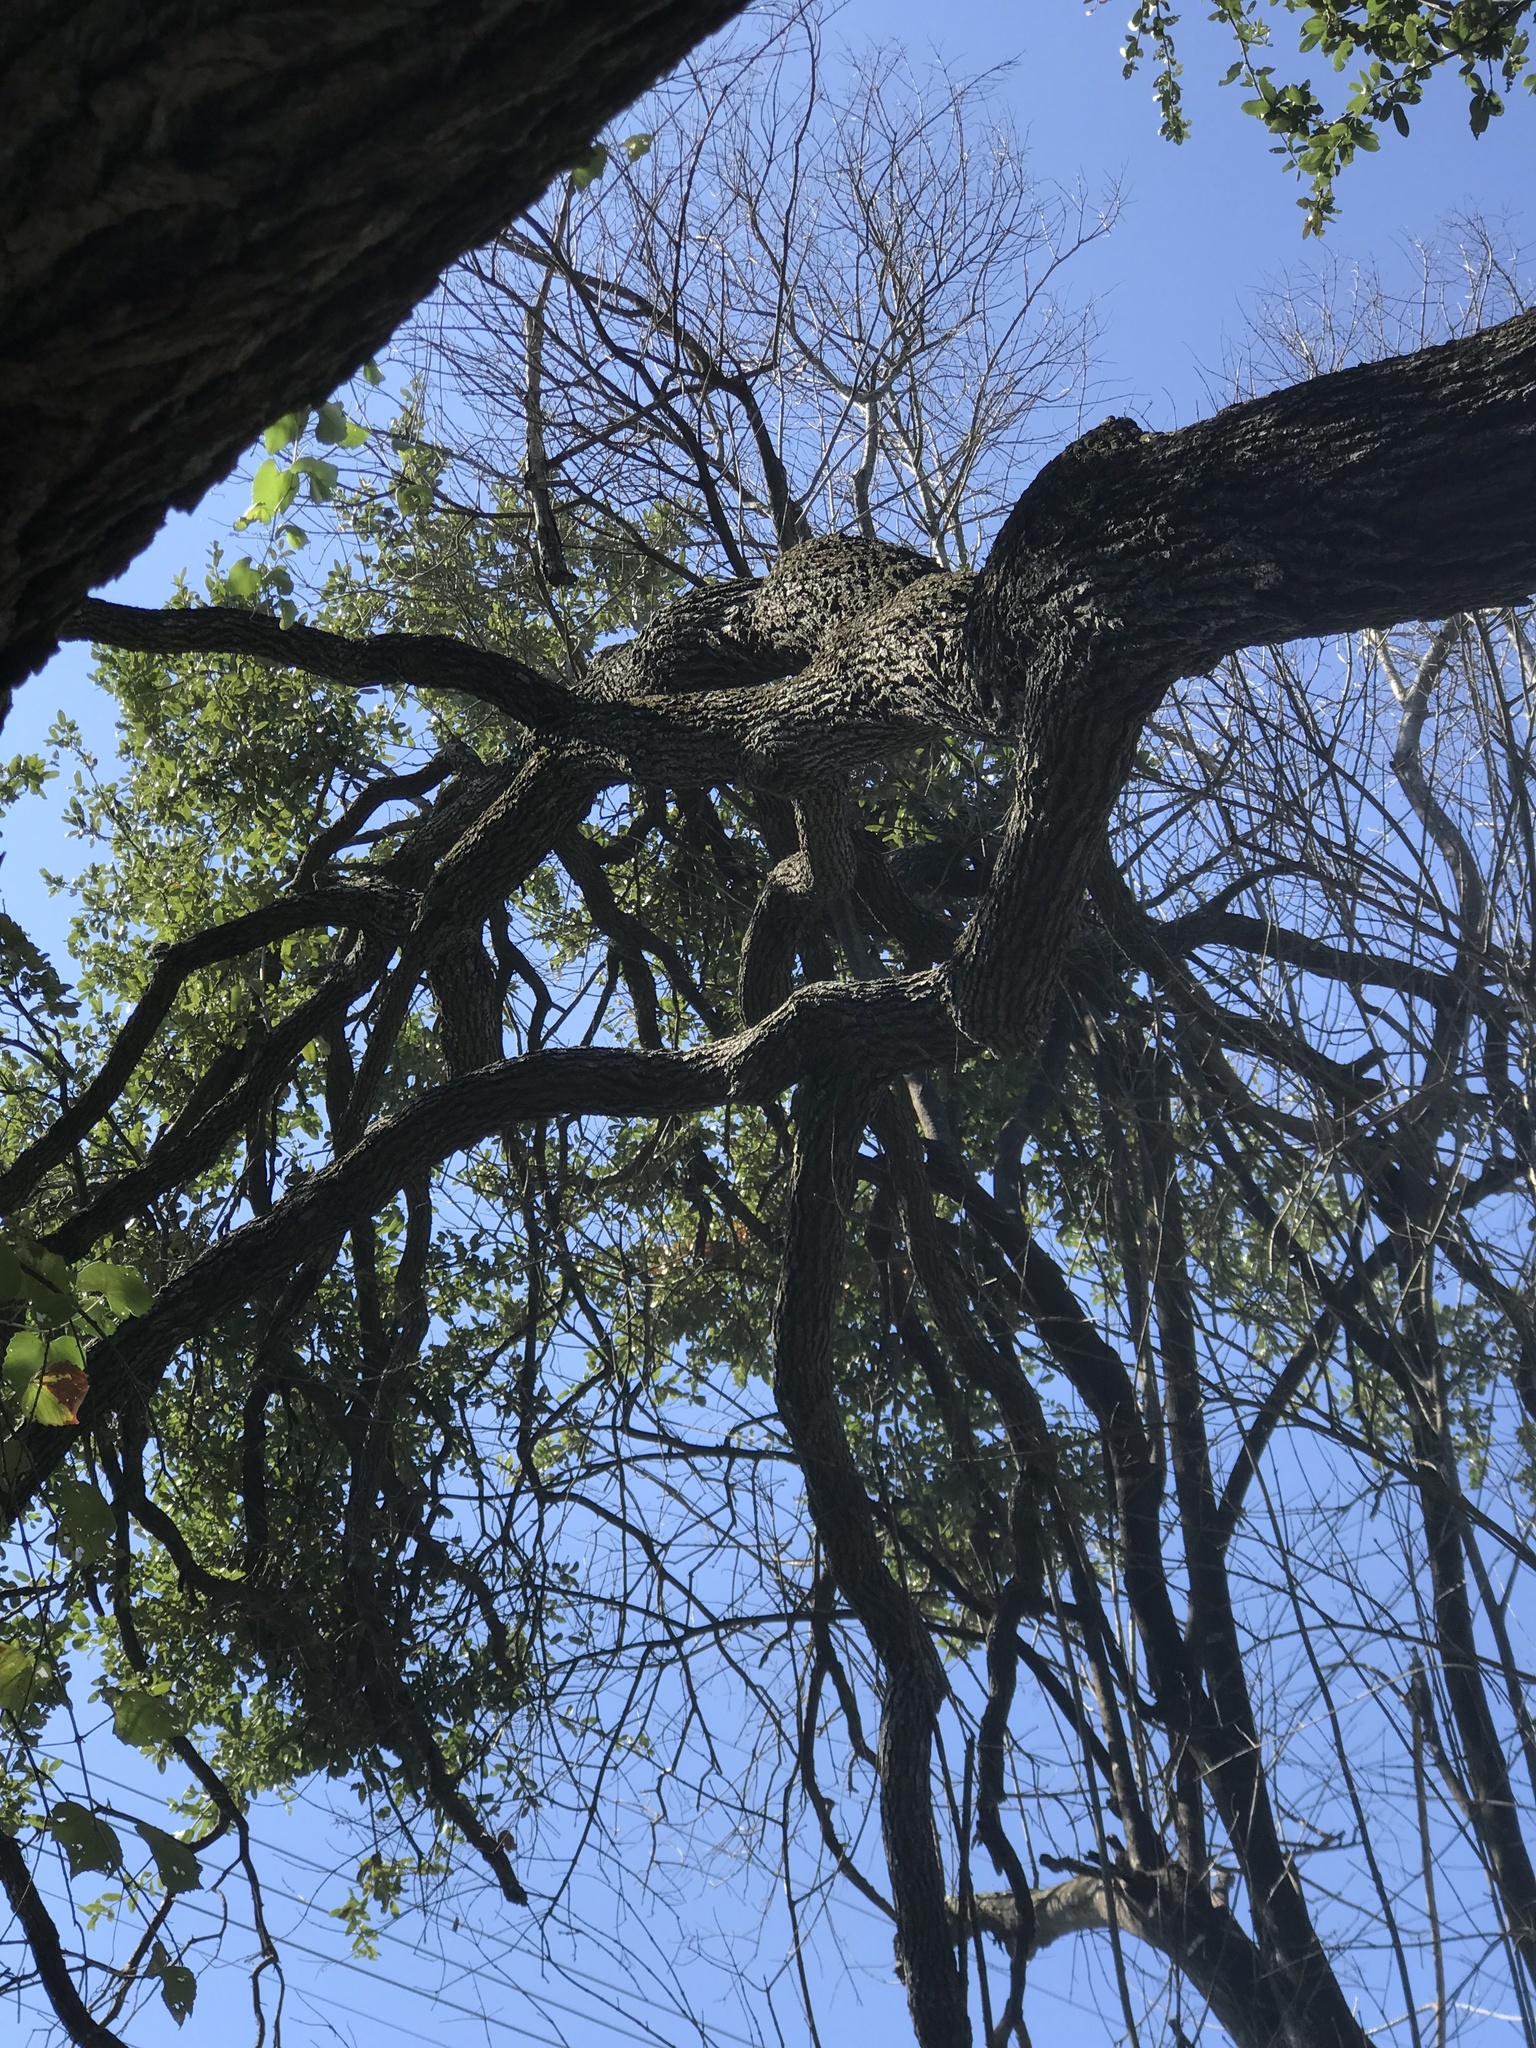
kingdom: Plantae
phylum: Tracheophyta
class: Magnoliopsida
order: Fagales
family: Fagaceae
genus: Quercus
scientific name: Quercus fusiformis
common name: Texas live oak
